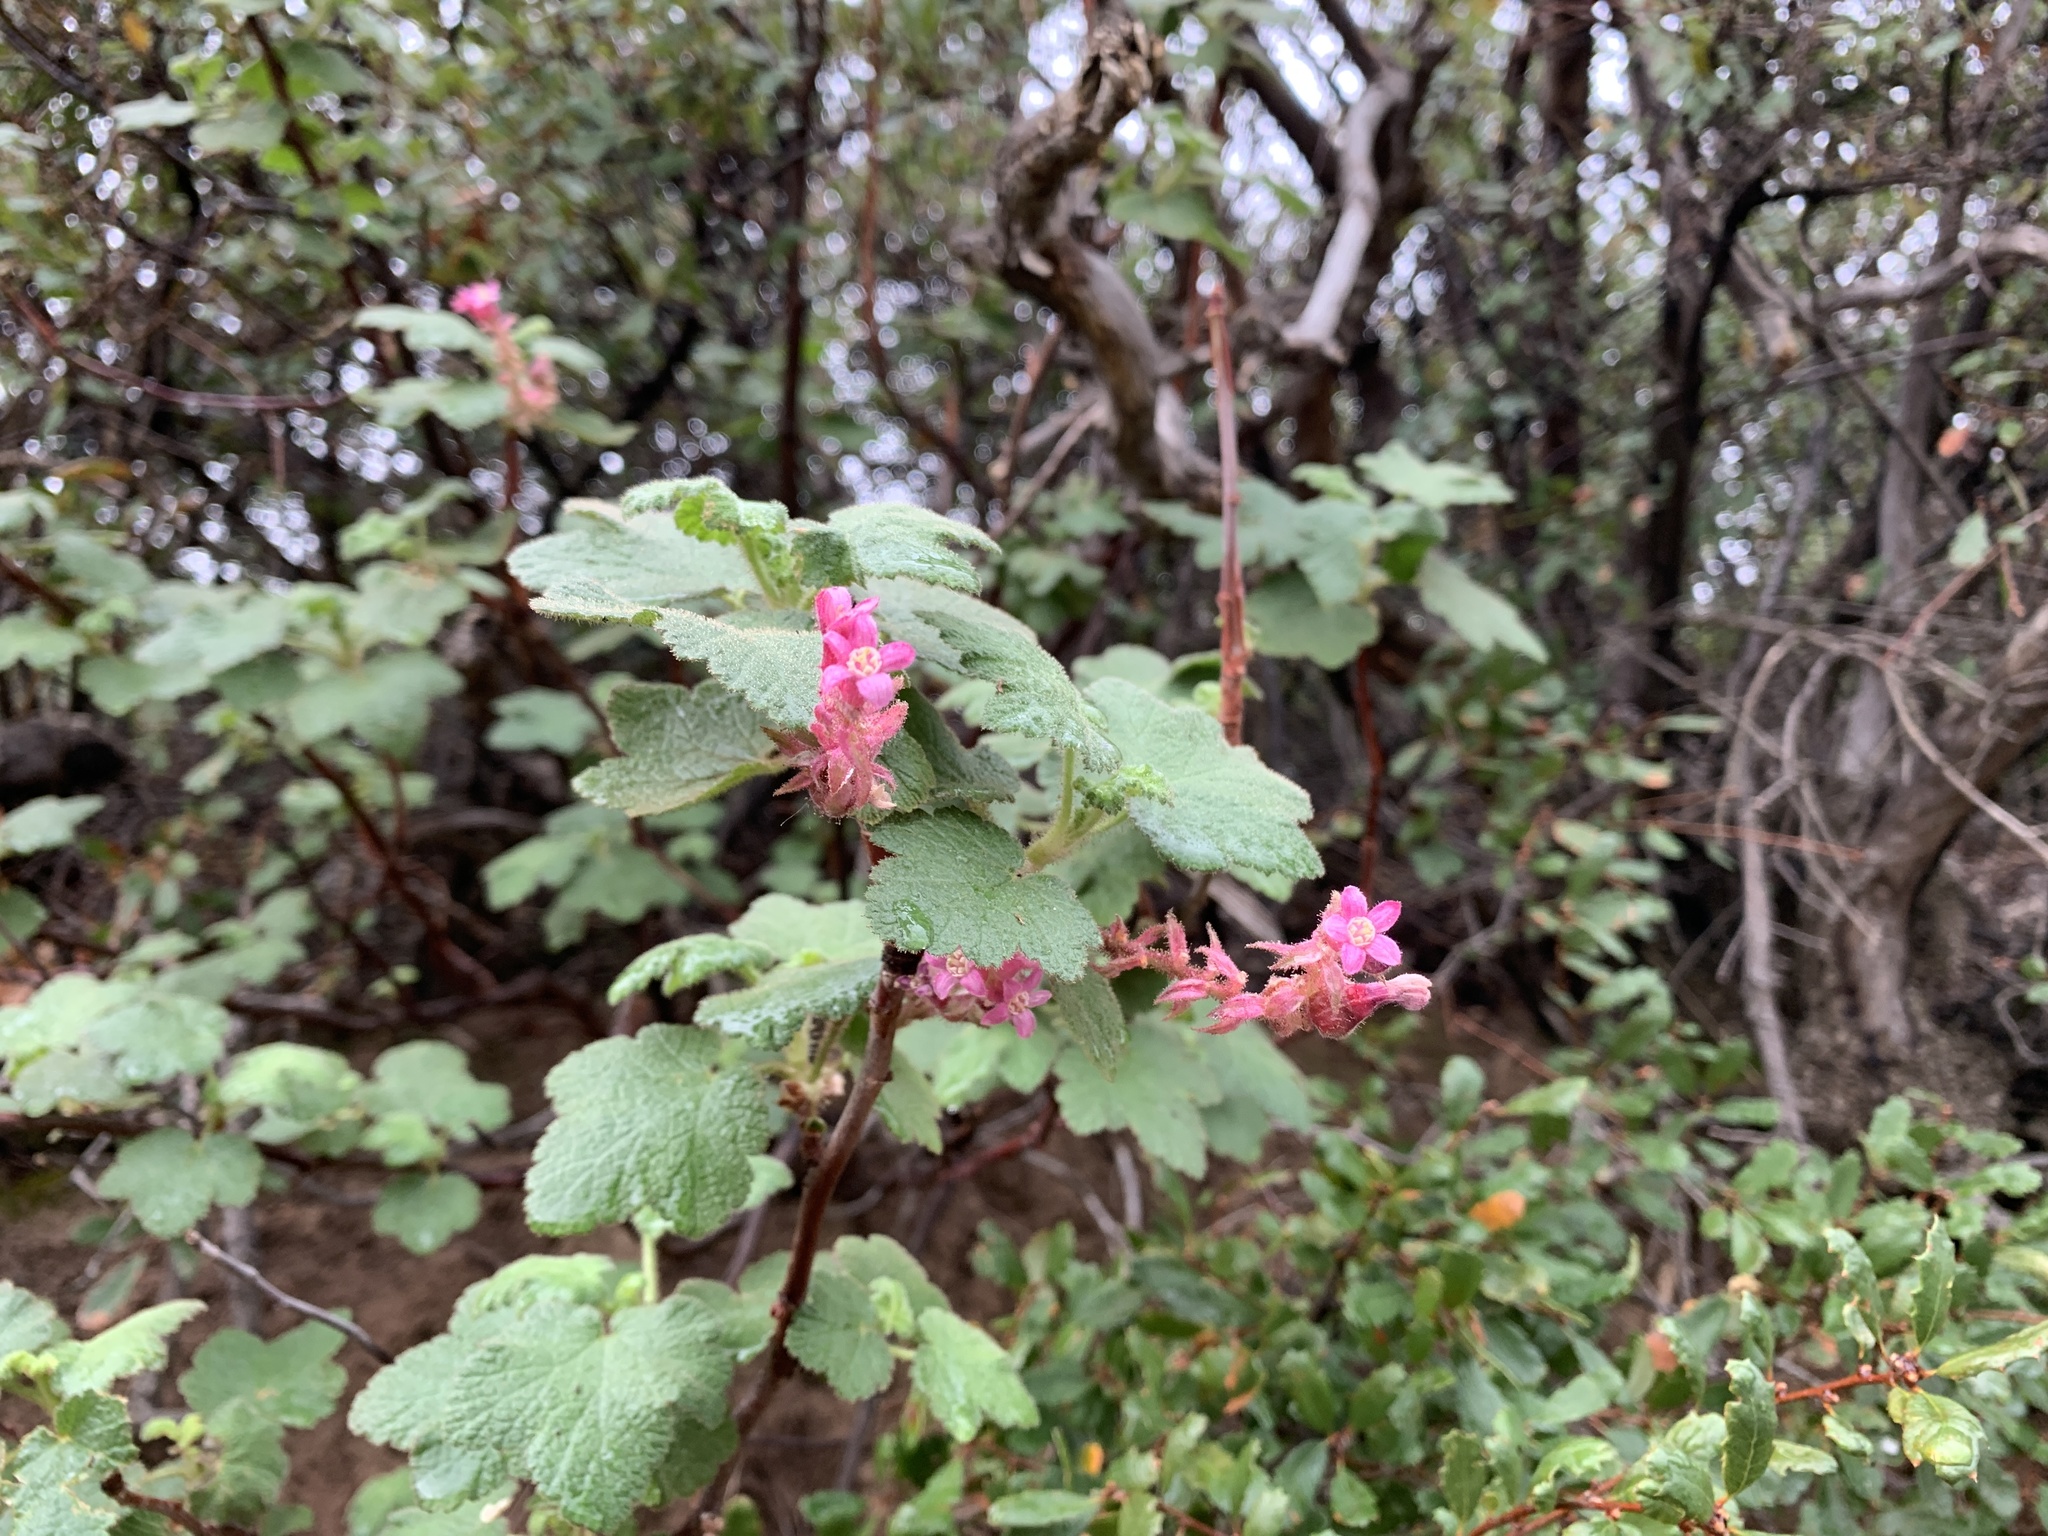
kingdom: Plantae
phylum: Tracheophyta
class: Magnoliopsida
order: Saxifragales
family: Grossulariaceae
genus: Ribes
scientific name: Ribes malvaceum
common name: Chaparral currant
